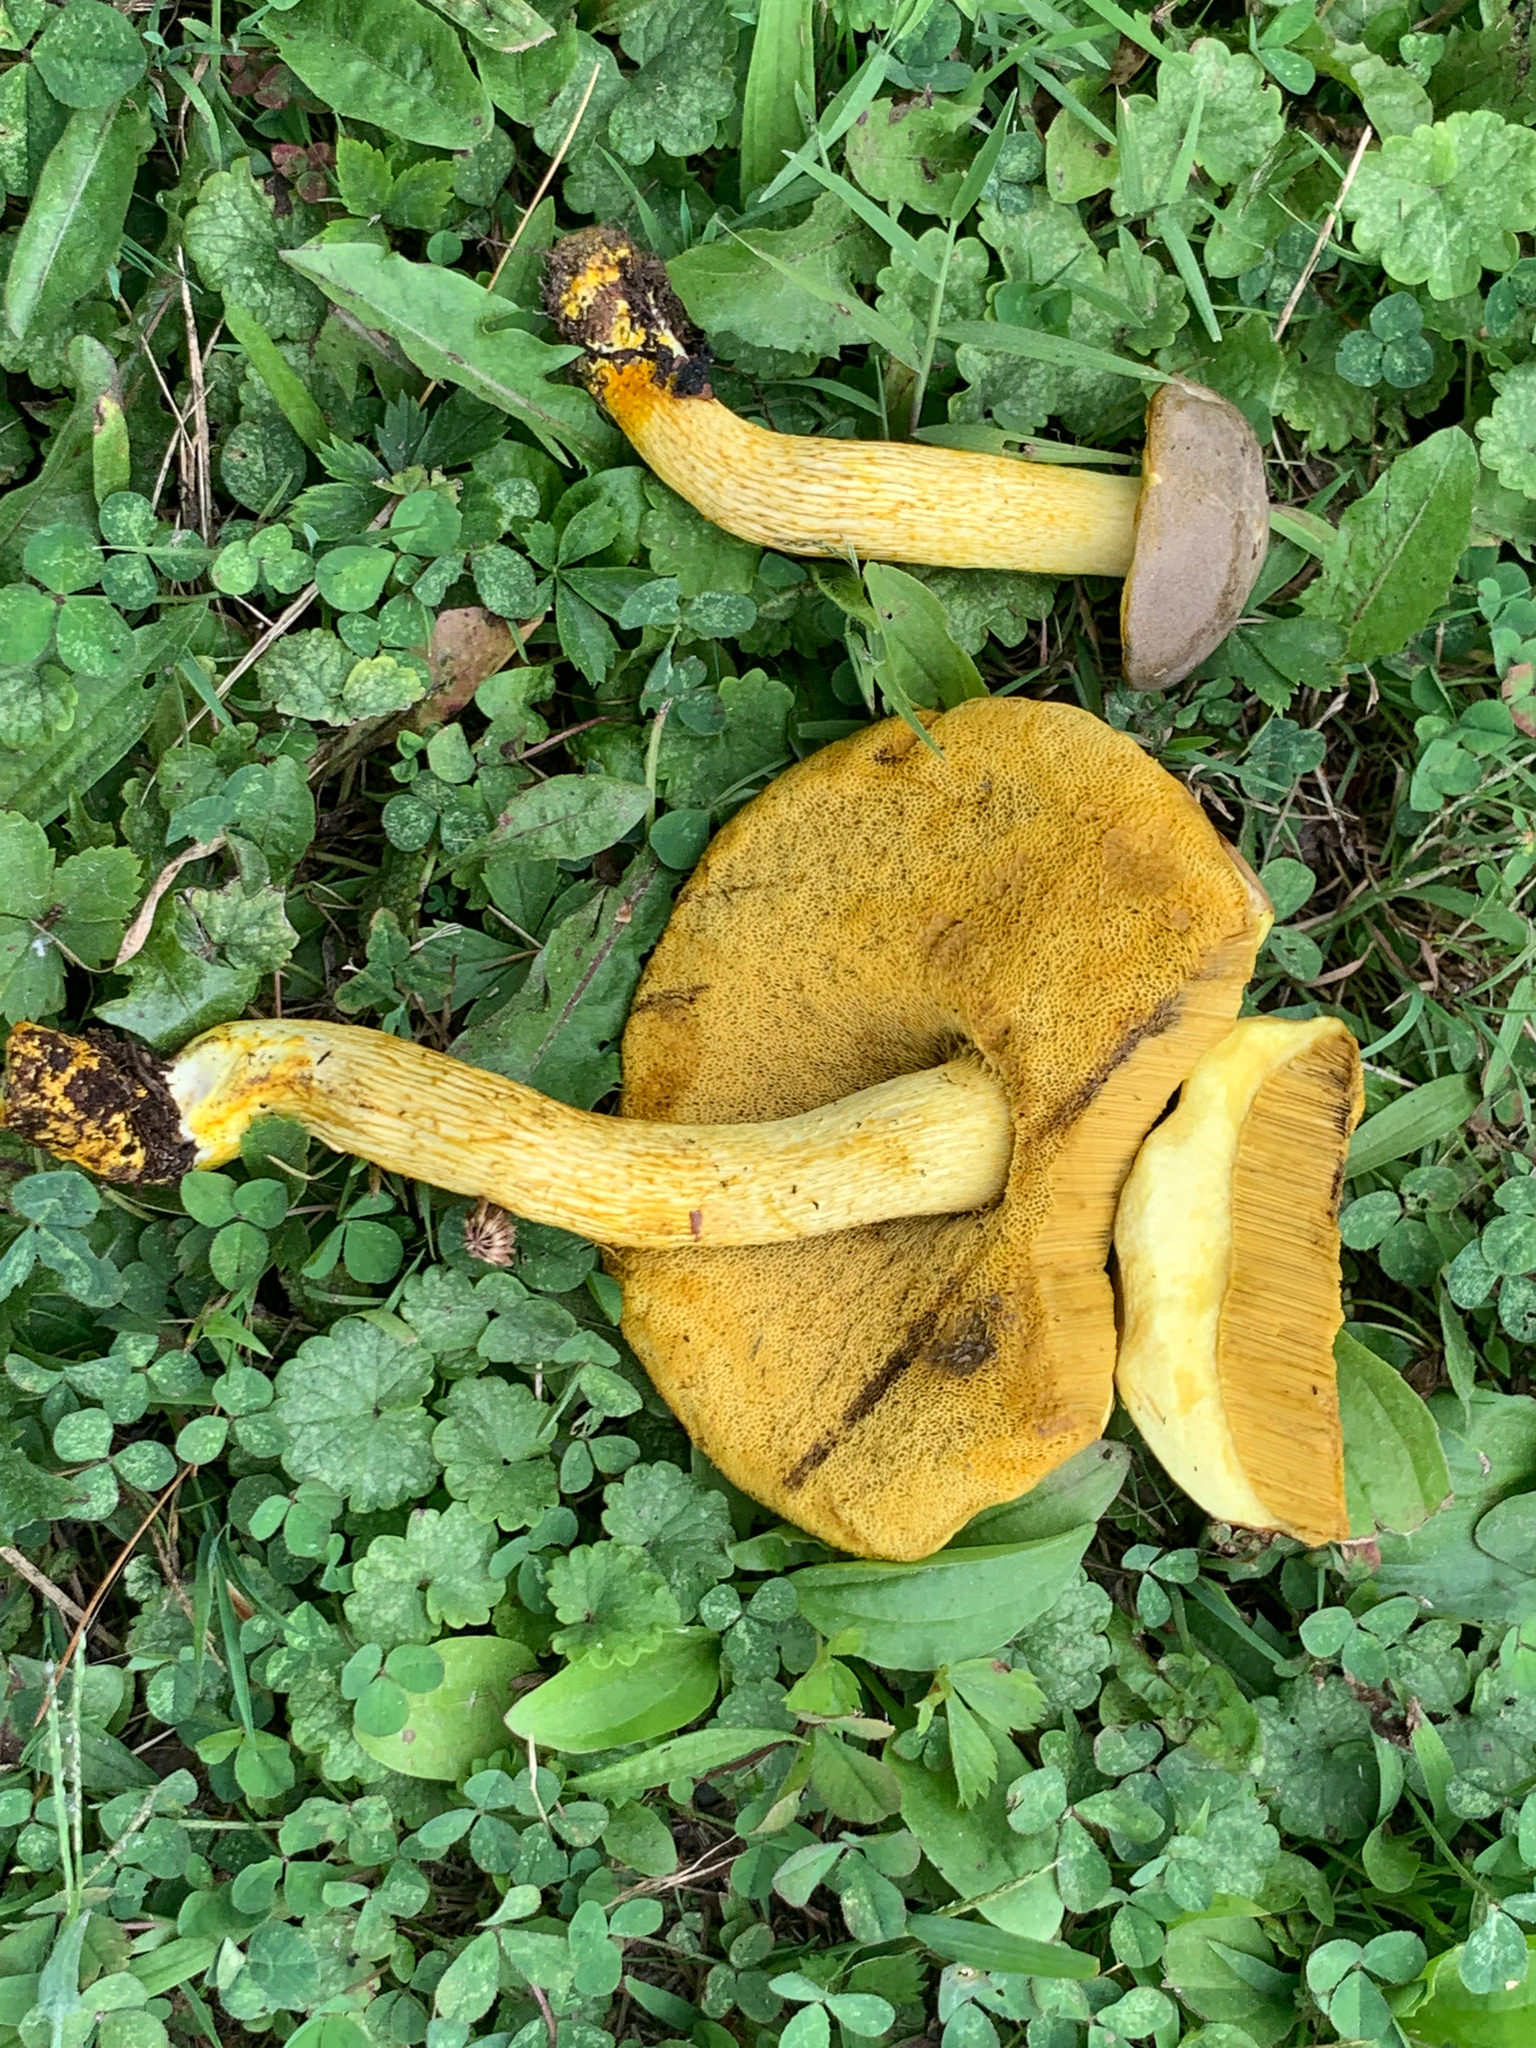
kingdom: Fungi
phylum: Basidiomycota
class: Agaricomycetes
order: Boletales
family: Boletaceae
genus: Retiboletus
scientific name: Retiboletus ornatipes
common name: Ornate-stalked bolete
